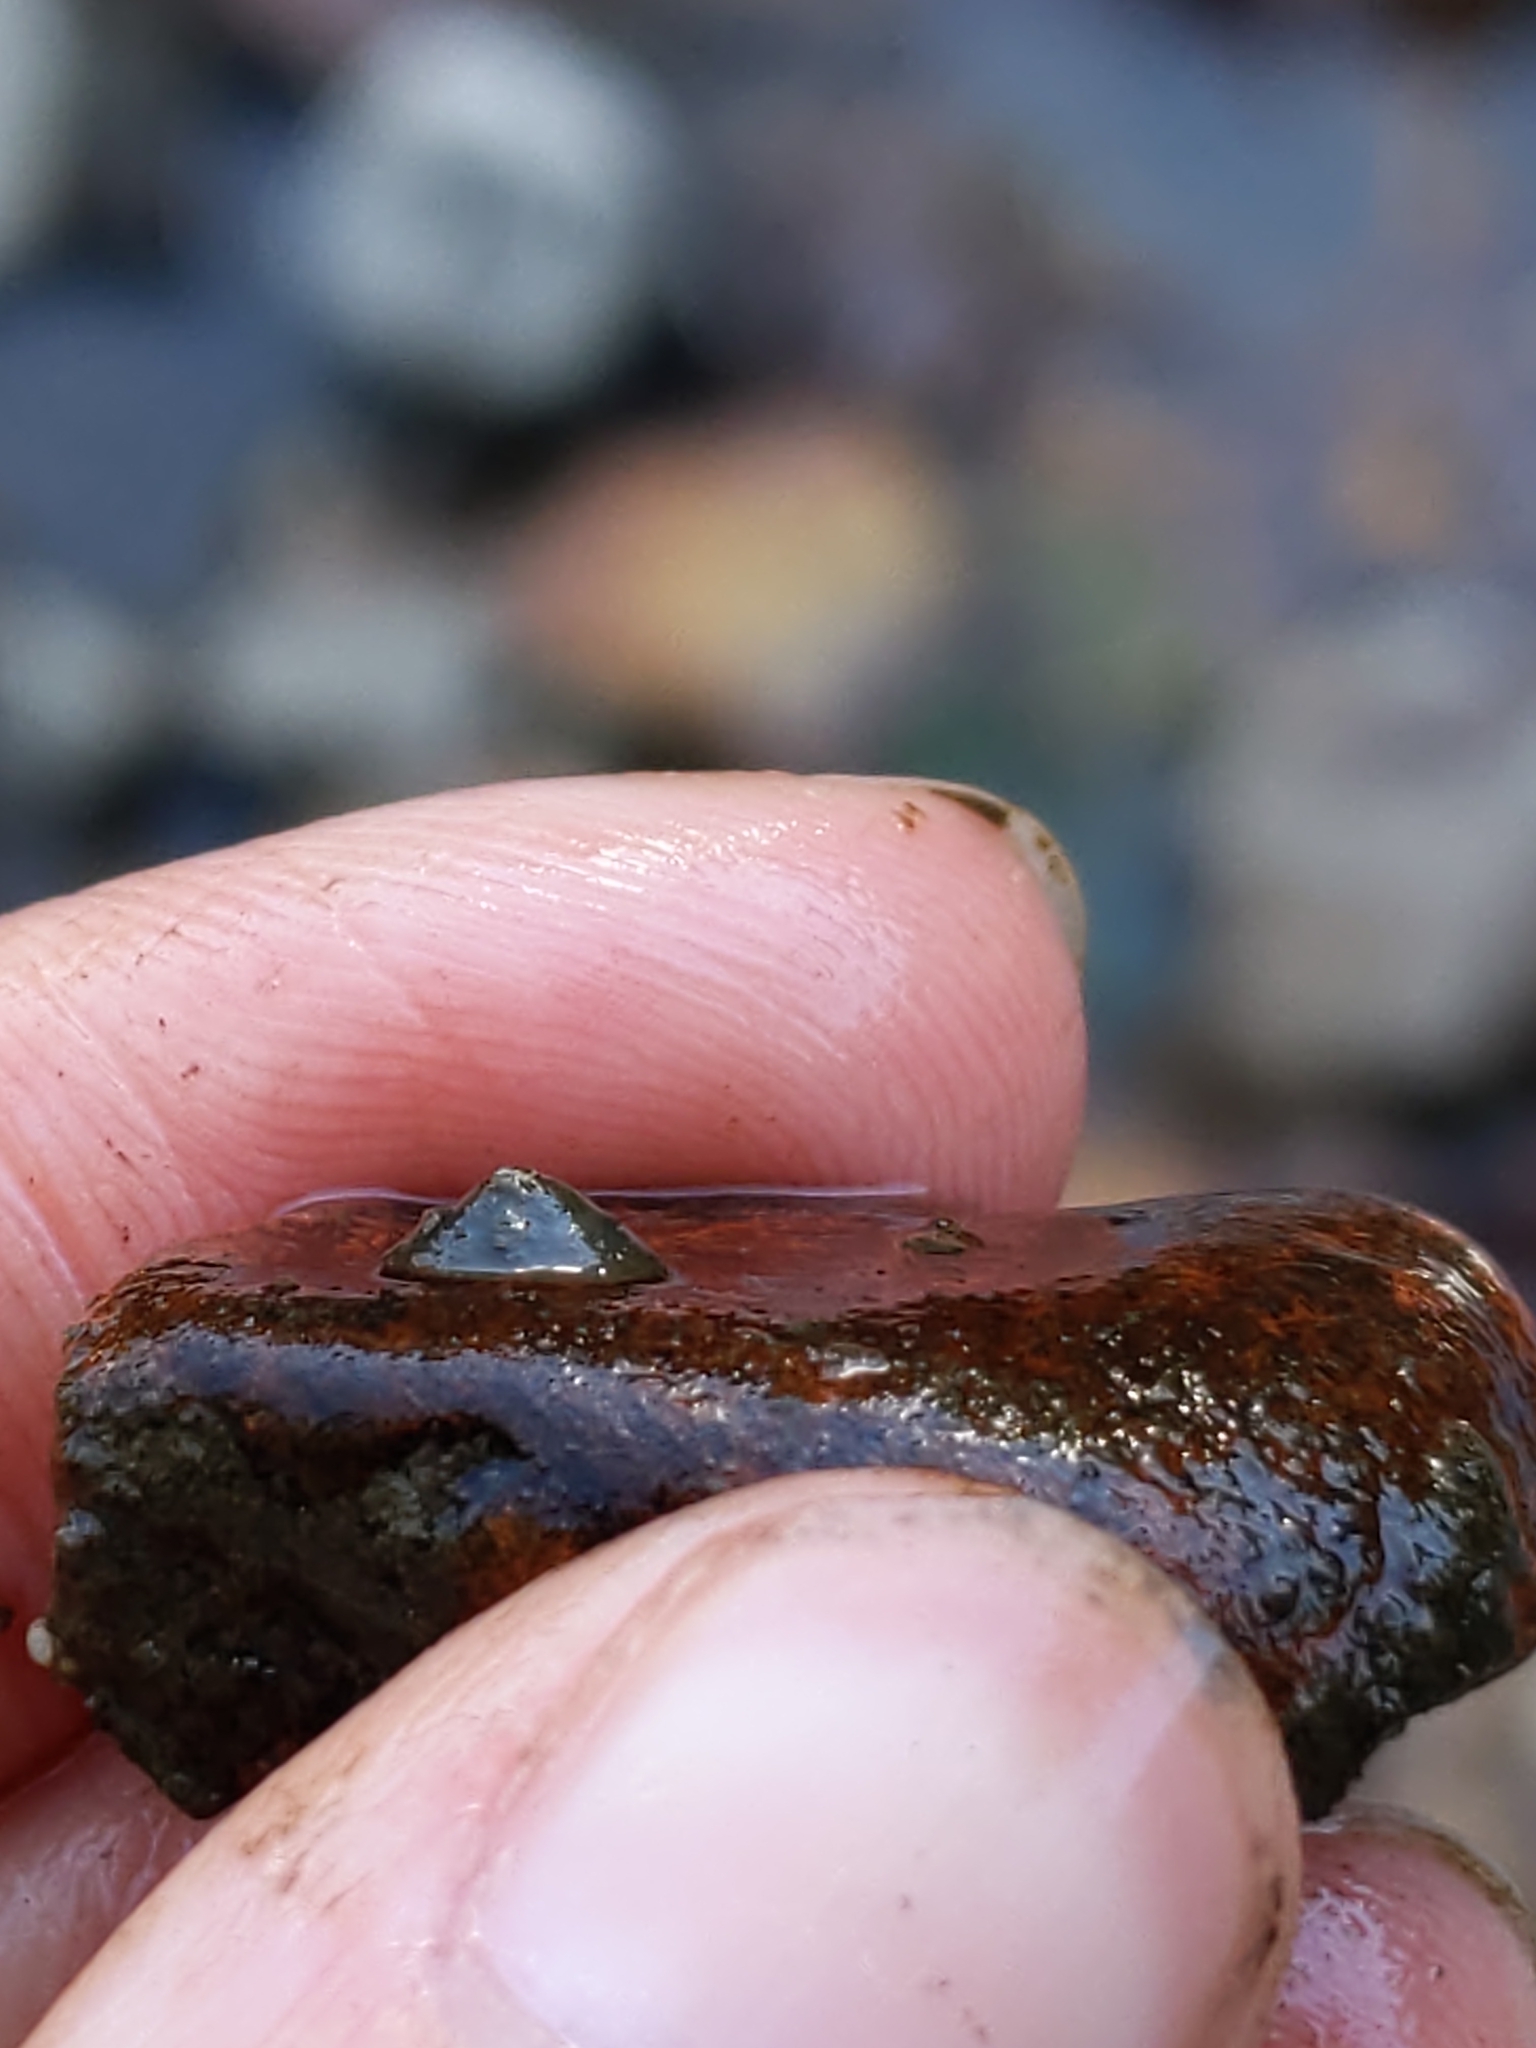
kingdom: Animalia
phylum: Mollusca
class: Gastropoda
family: Planorbidae
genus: Laevapex
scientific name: Laevapex fuscus
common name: Dusky ancylid
